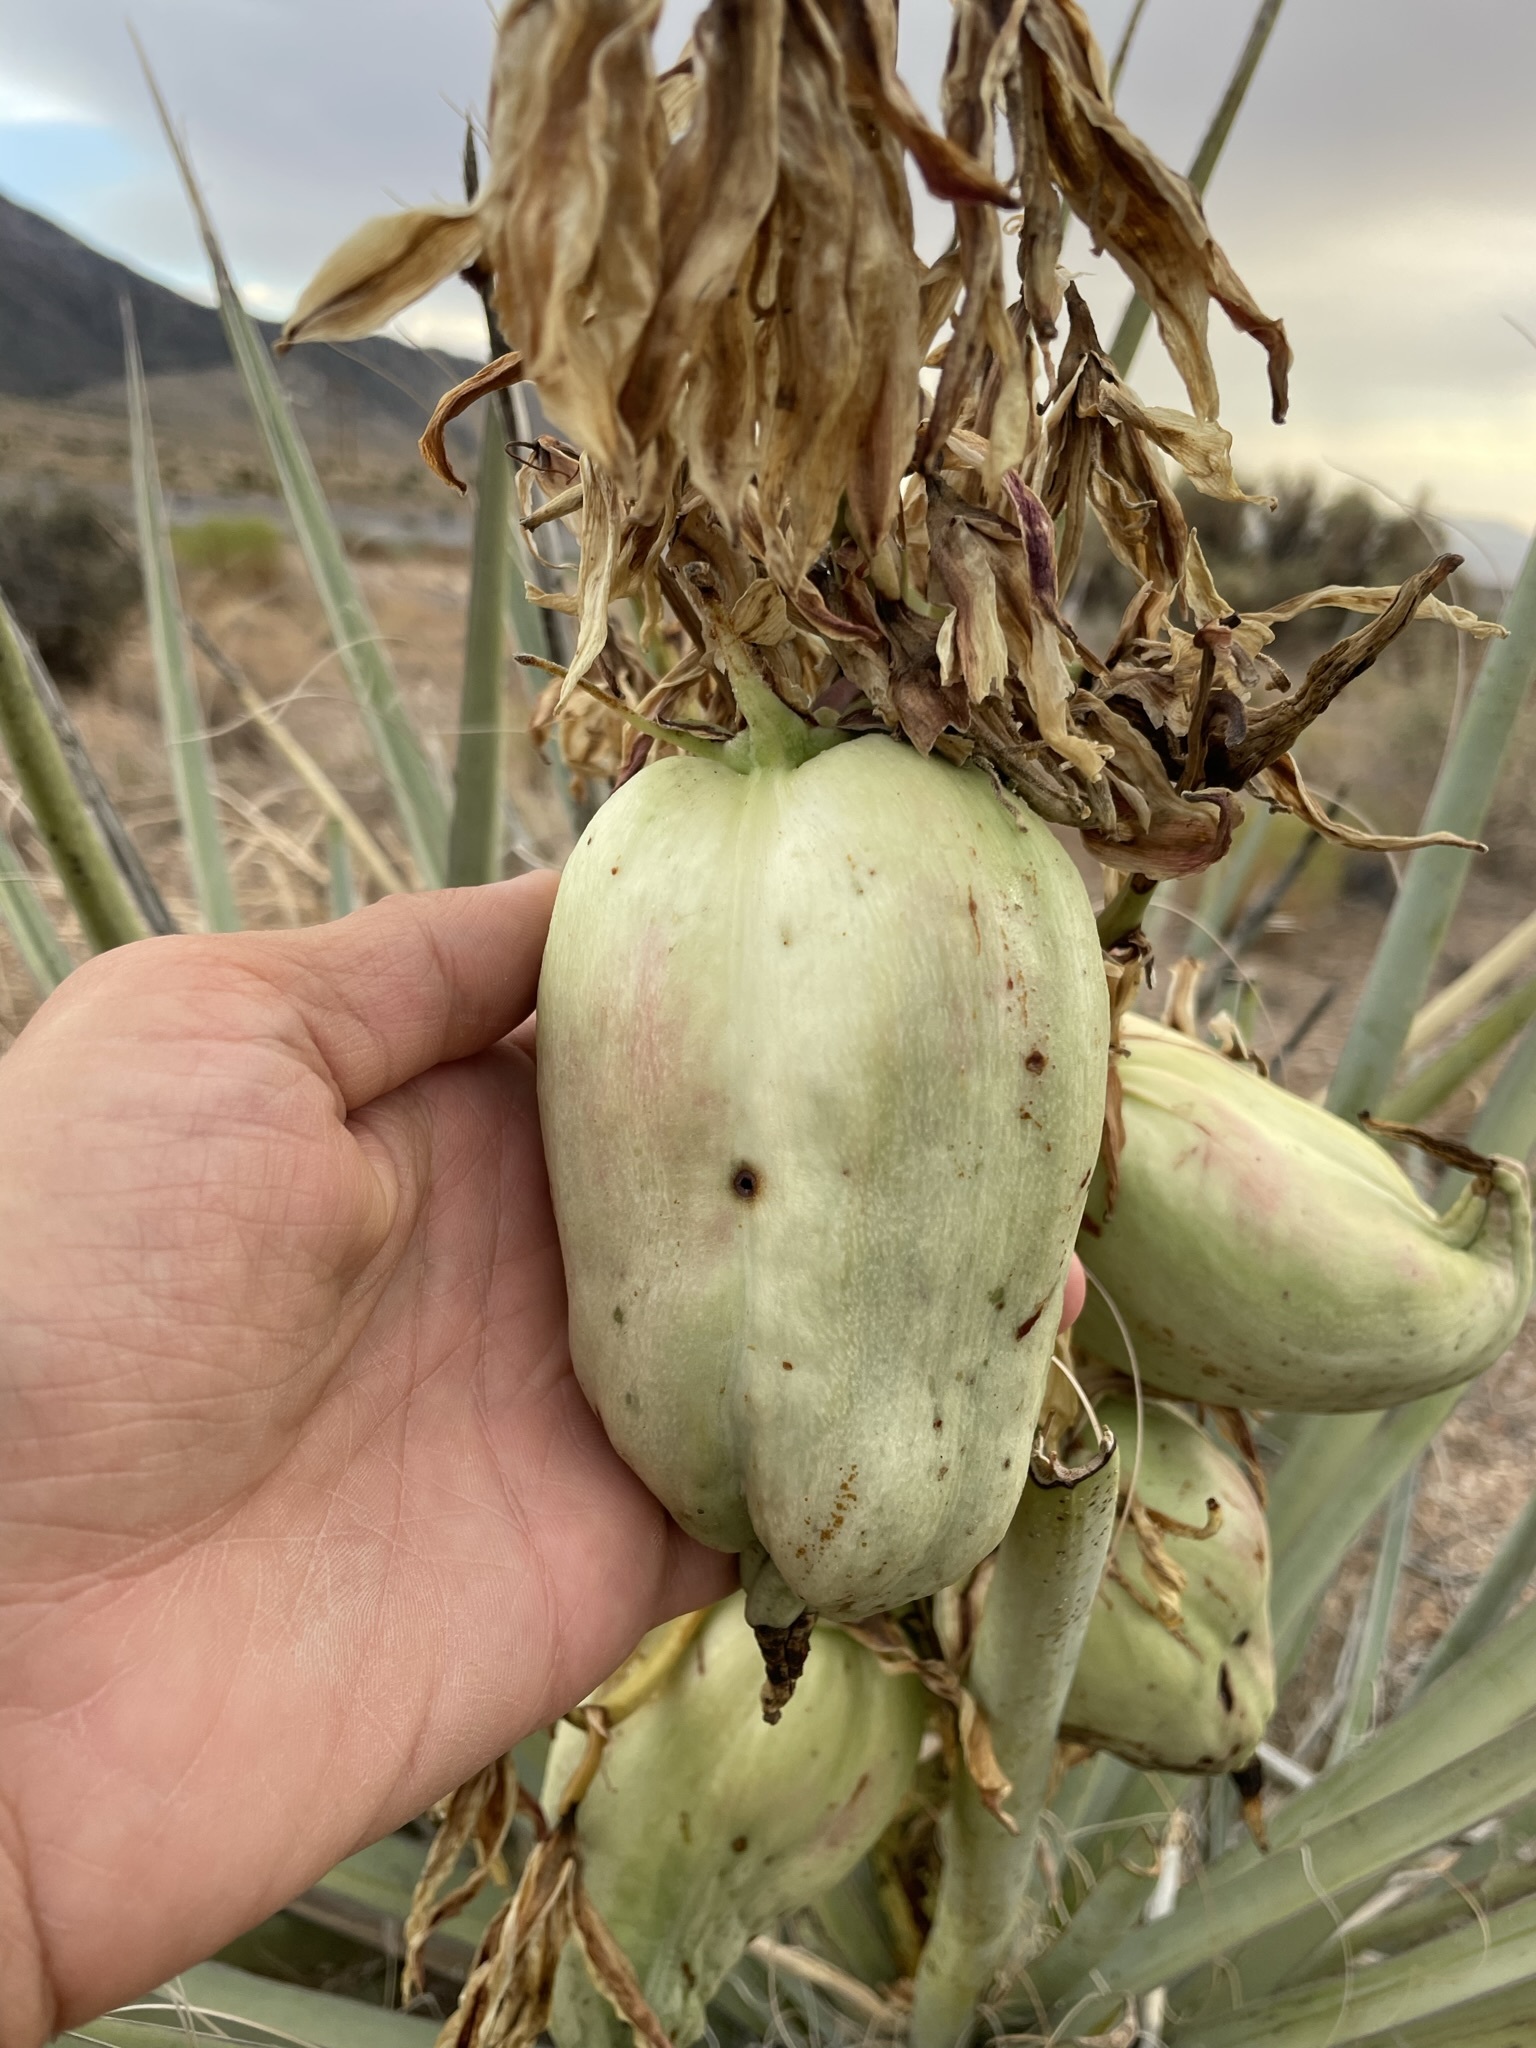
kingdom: Plantae
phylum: Tracheophyta
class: Liliopsida
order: Asparagales
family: Asparagaceae
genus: Yucca
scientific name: Yucca baccata
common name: Banana yucca
